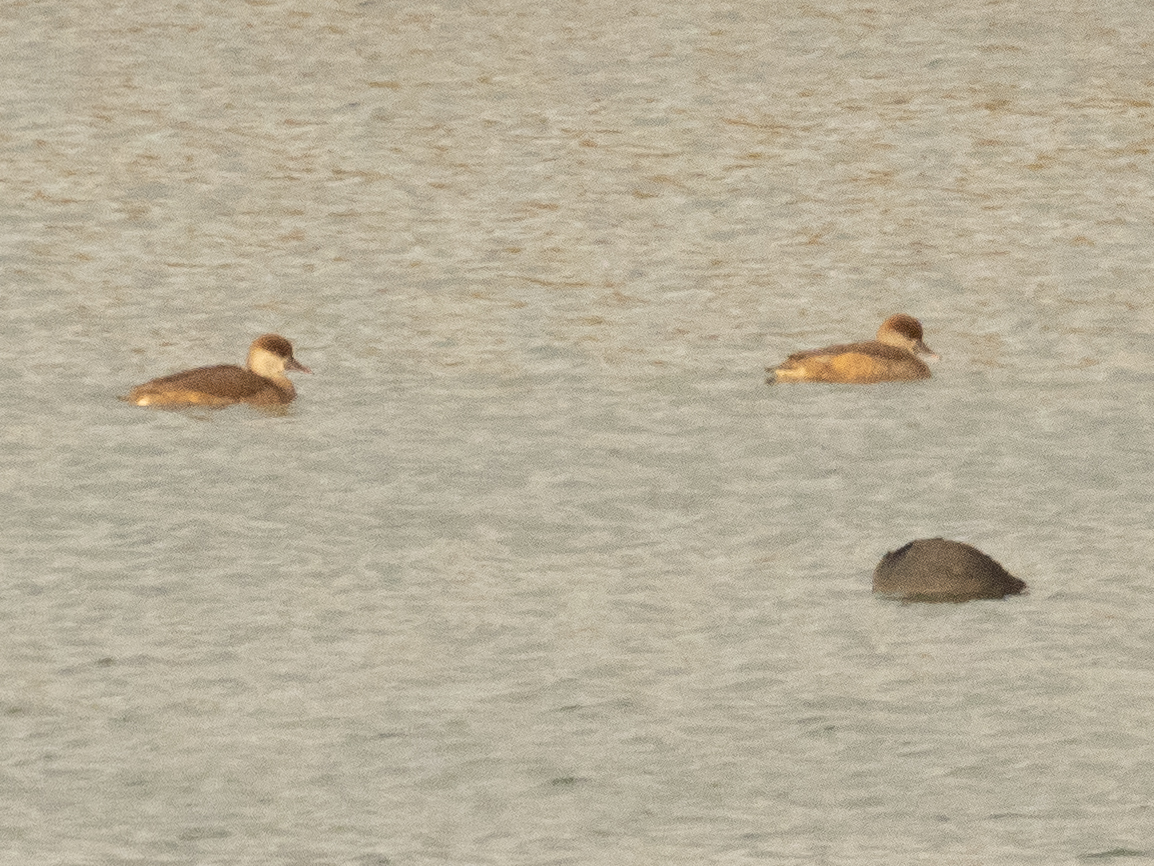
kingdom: Animalia
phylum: Chordata
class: Aves
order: Anseriformes
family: Anatidae
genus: Netta
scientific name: Netta rufina
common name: Red-crested pochard
